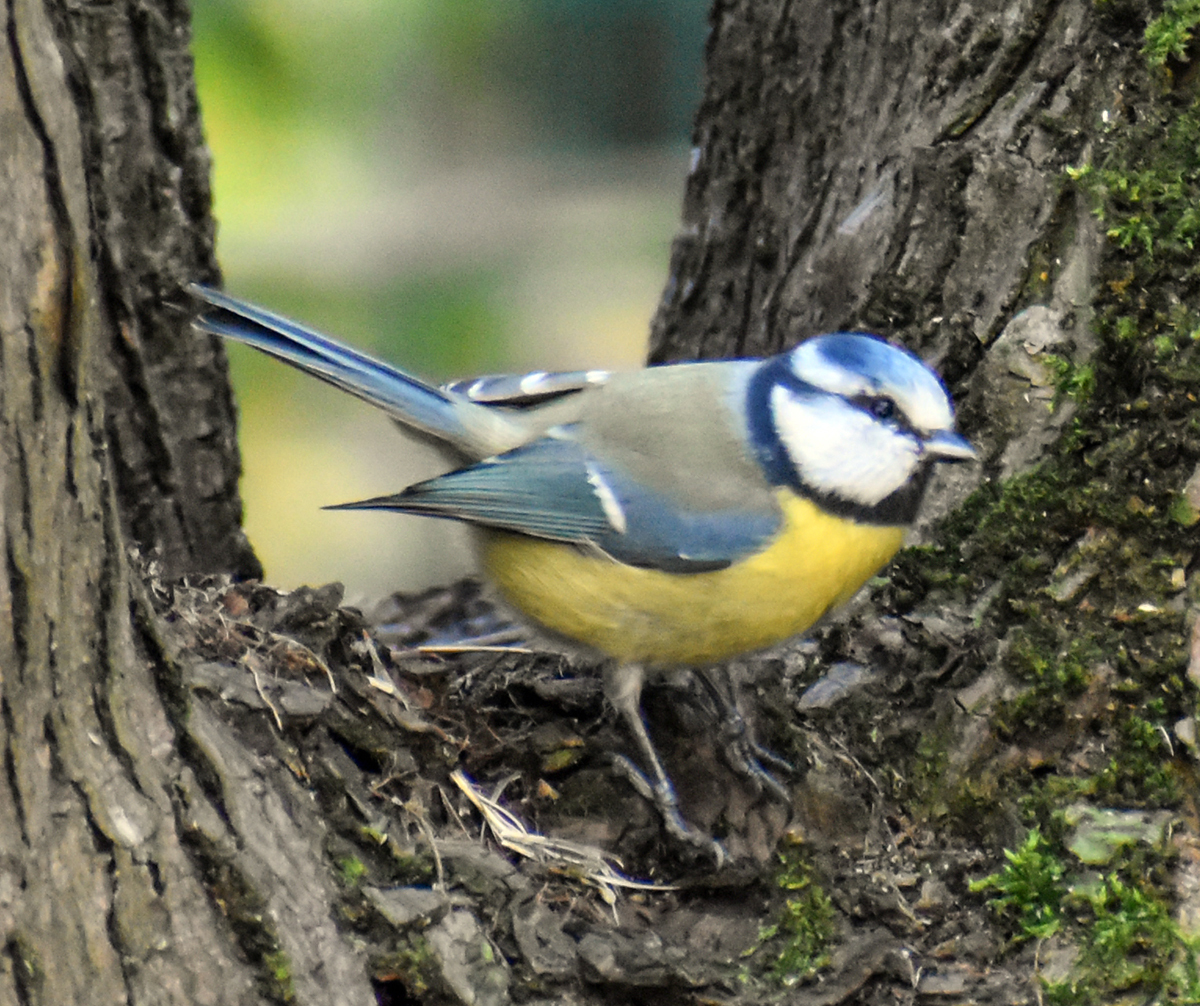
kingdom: Animalia
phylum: Chordata
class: Aves
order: Passeriformes
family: Paridae
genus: Cyanistes
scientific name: Cyanistes caeruleus
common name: Eurasian blue tit
